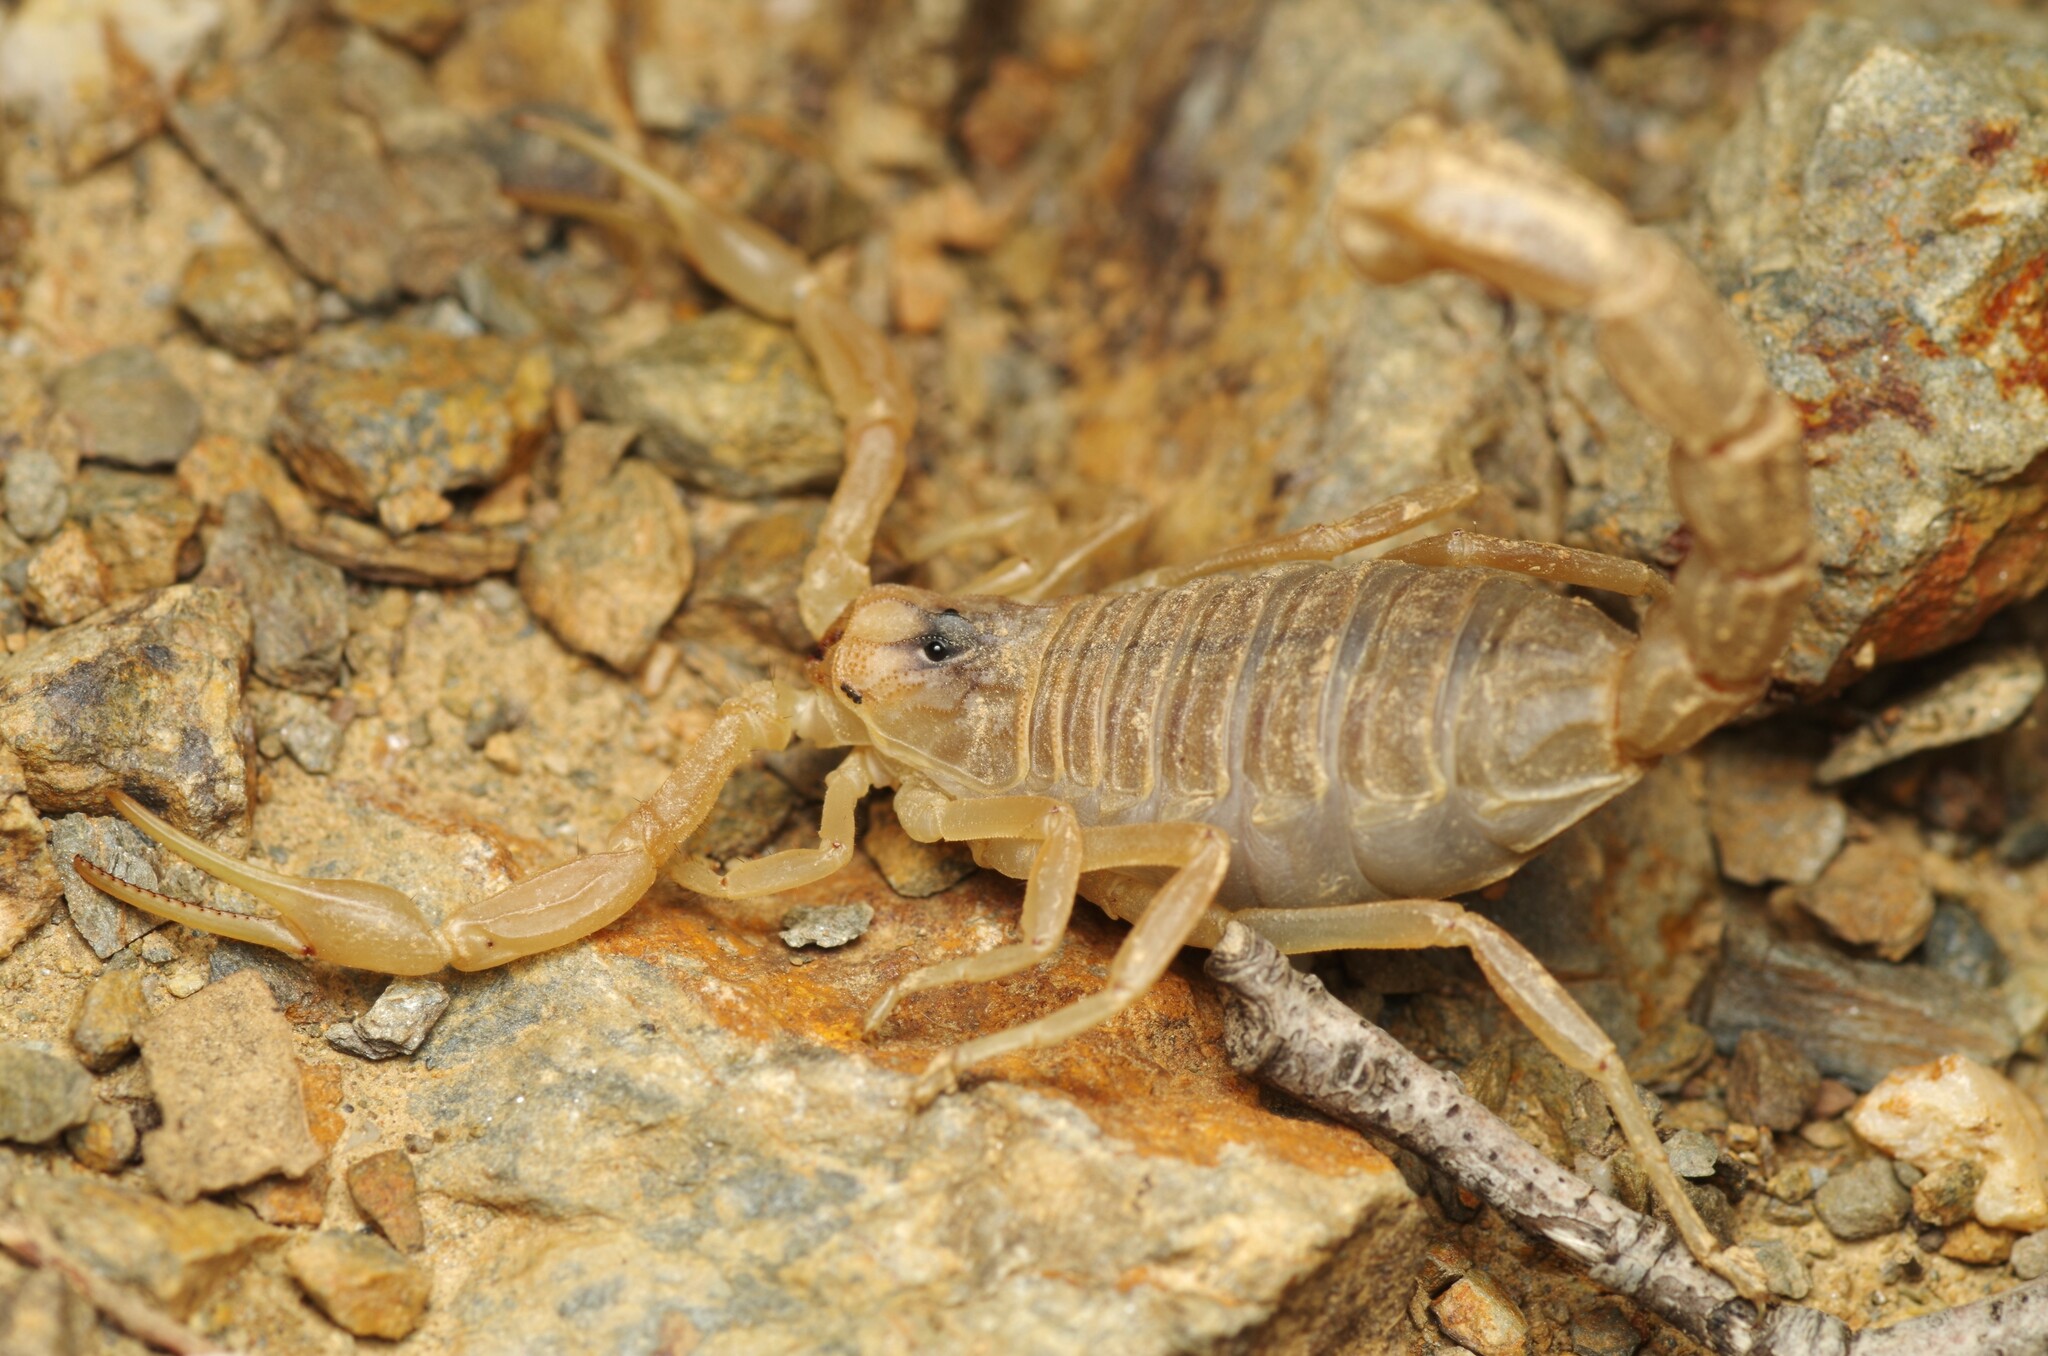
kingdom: Animalia
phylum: Arthropoda
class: Arachnida
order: Scorpiones
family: Buthidae
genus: Buthus
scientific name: Buthus pyrenaeus
